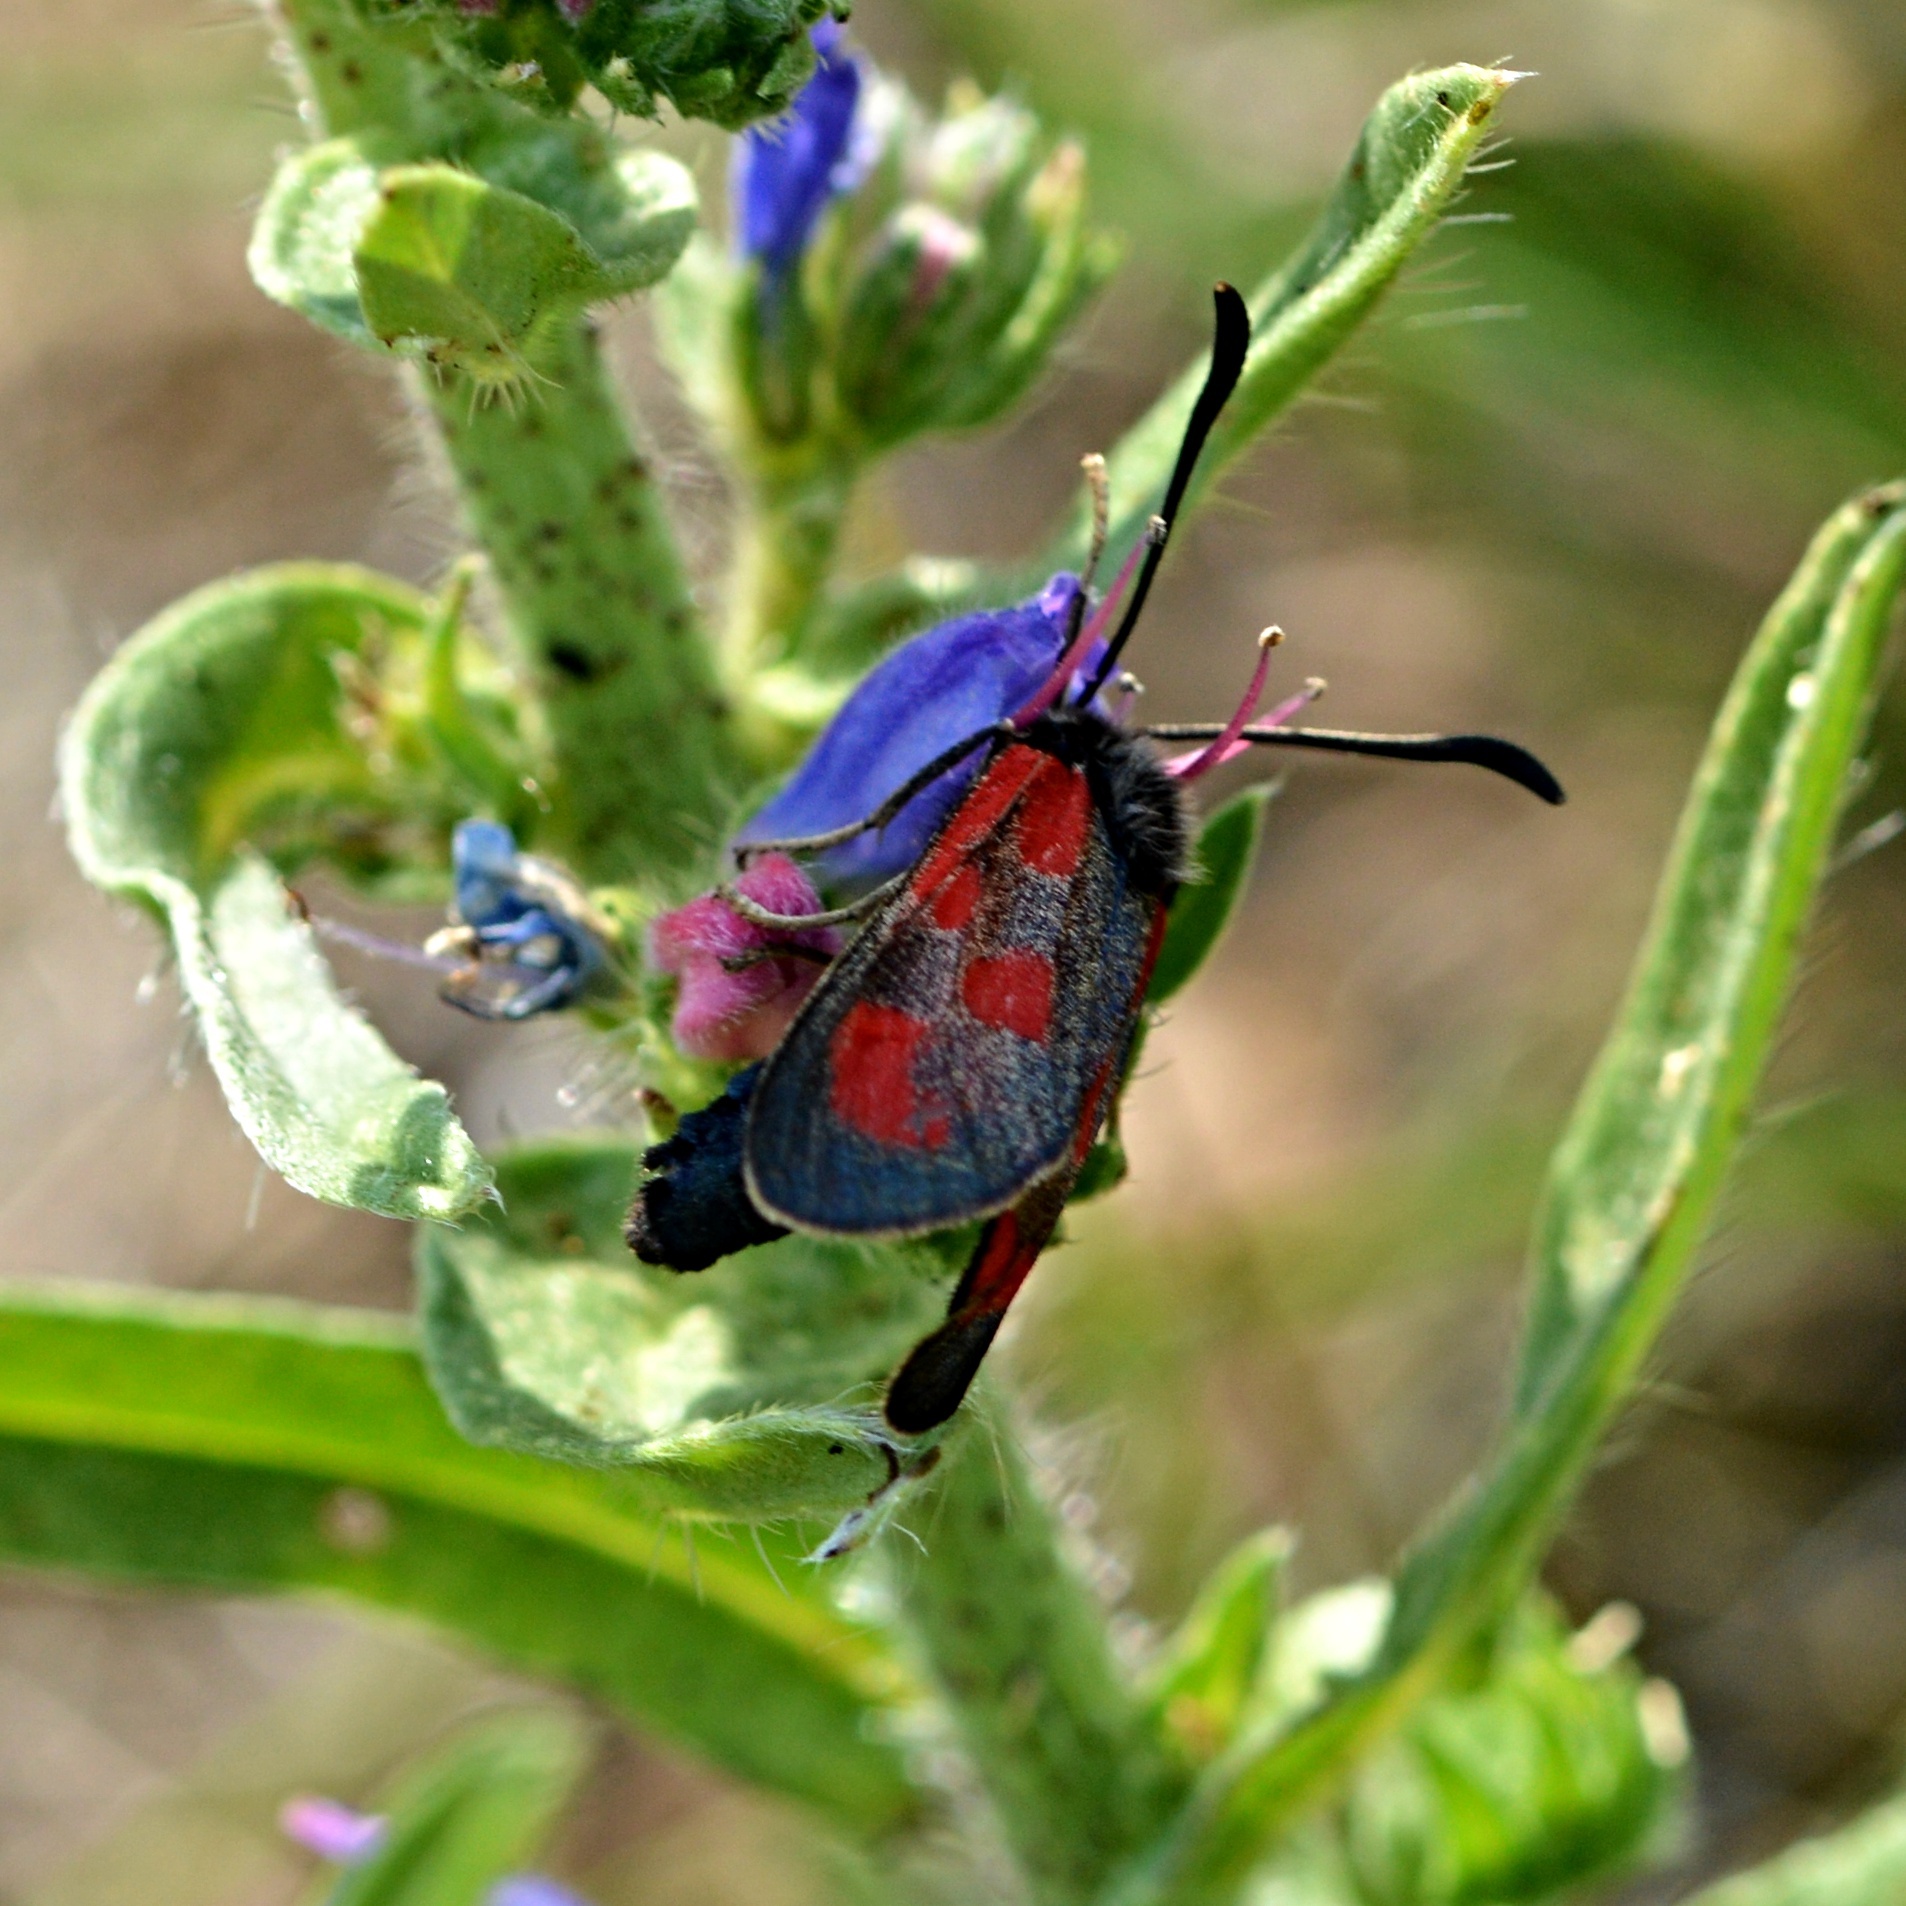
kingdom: Animalia
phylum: Arthropoda
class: Insecta
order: Lepidoptera
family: Zygaenidae
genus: Zygaena
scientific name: Zygaena loti
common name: Slender scotch burnet
